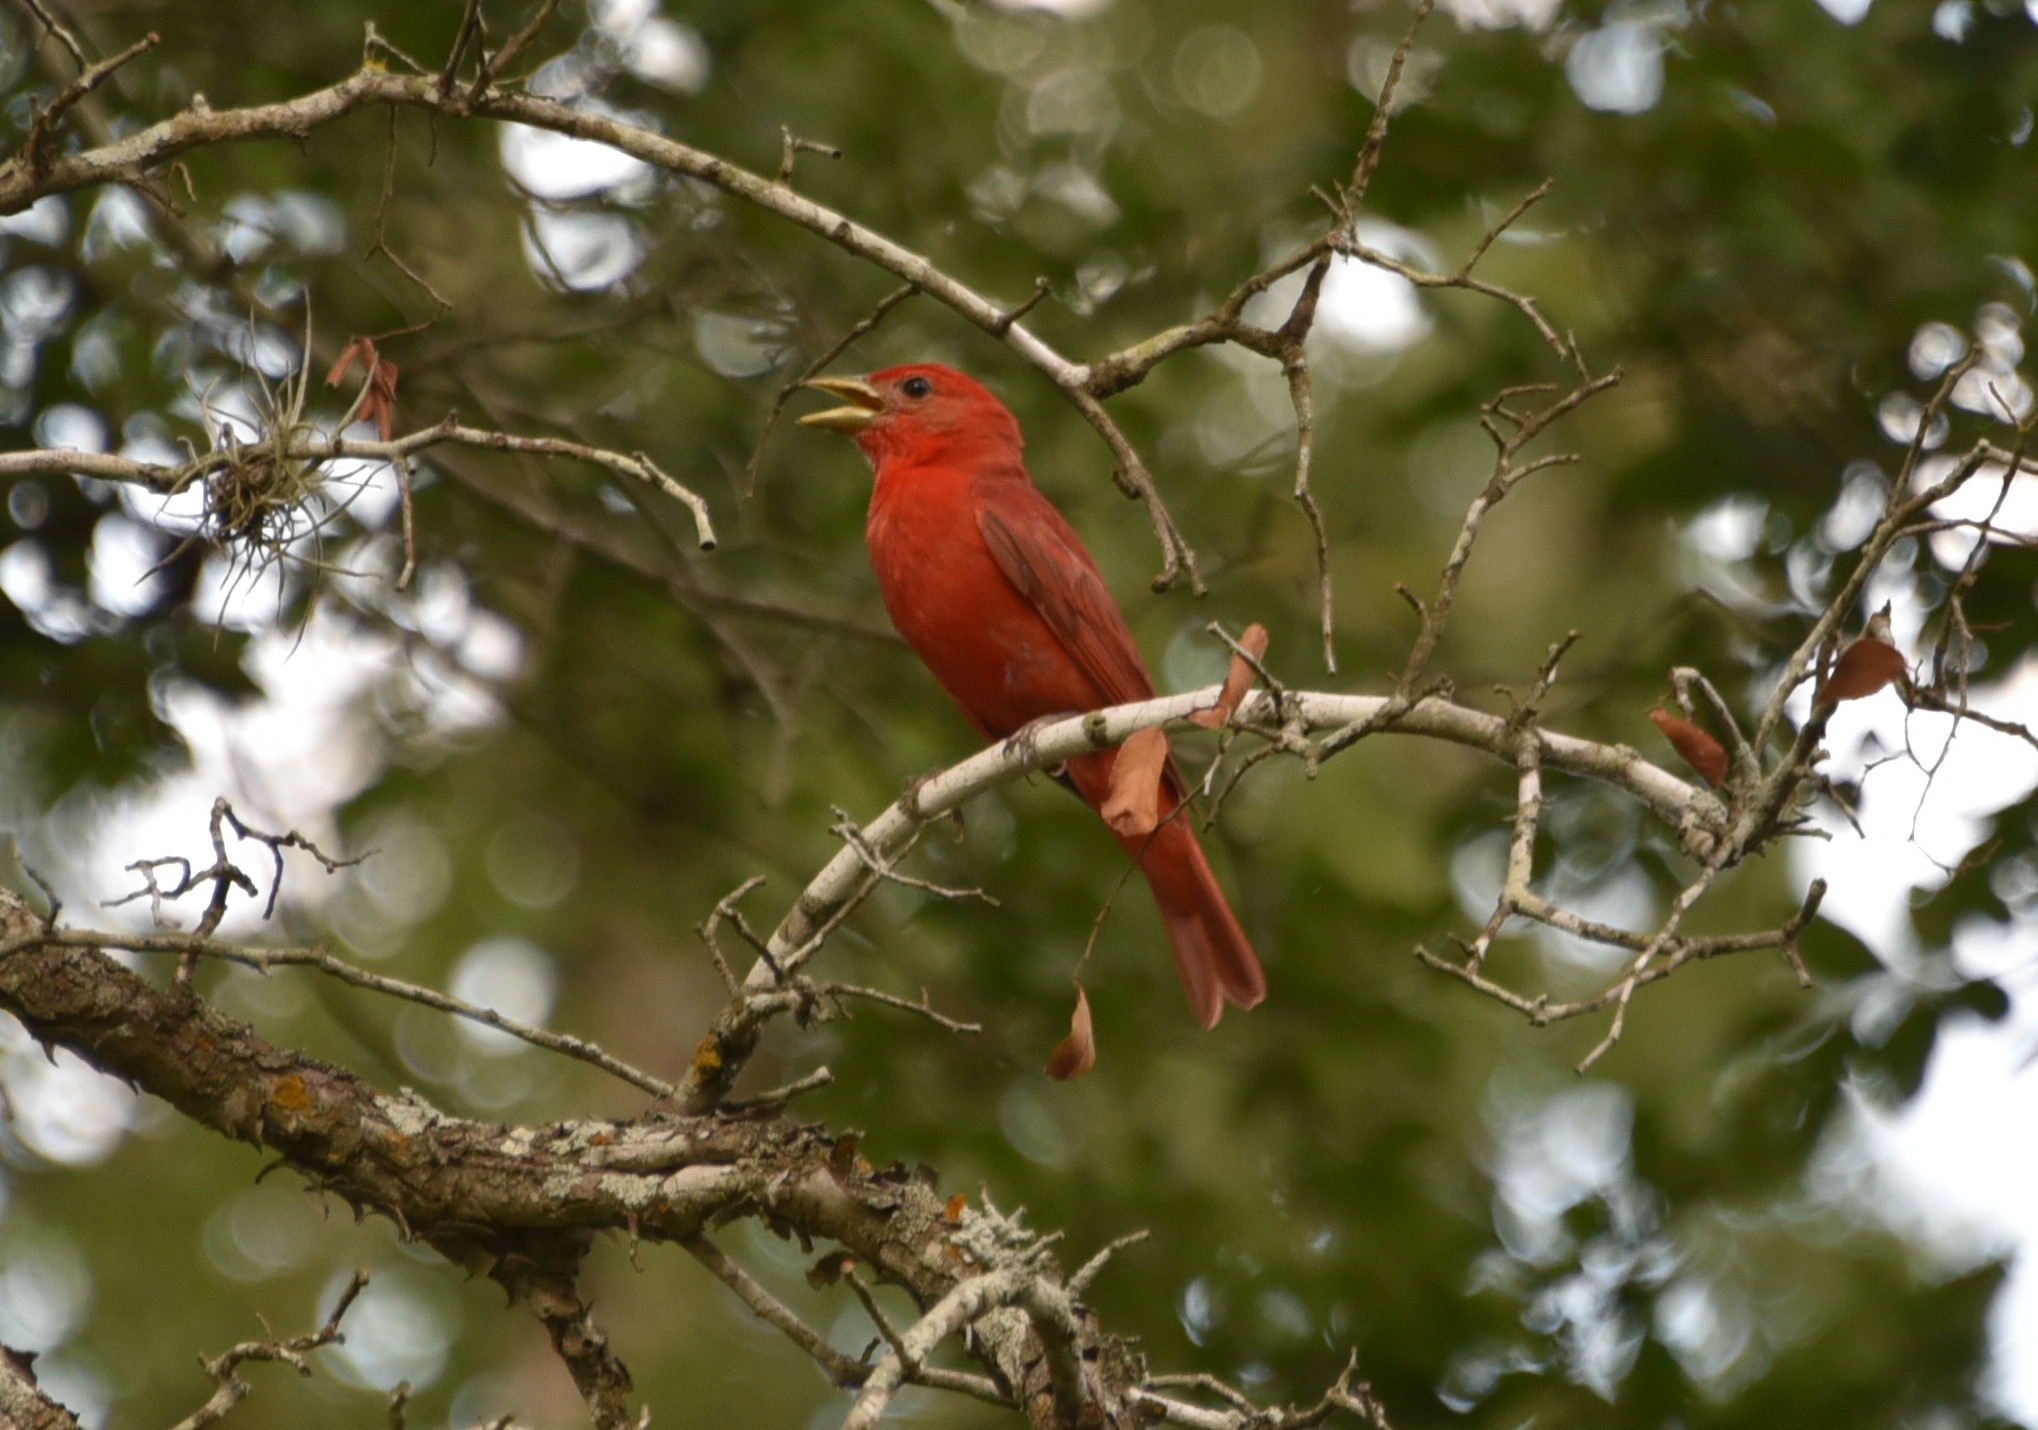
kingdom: Animalia
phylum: Chordata
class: Aves
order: Passeriformes
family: Cardinalidae
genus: Piranga
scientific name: Piranga rubra
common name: Summer tanager
